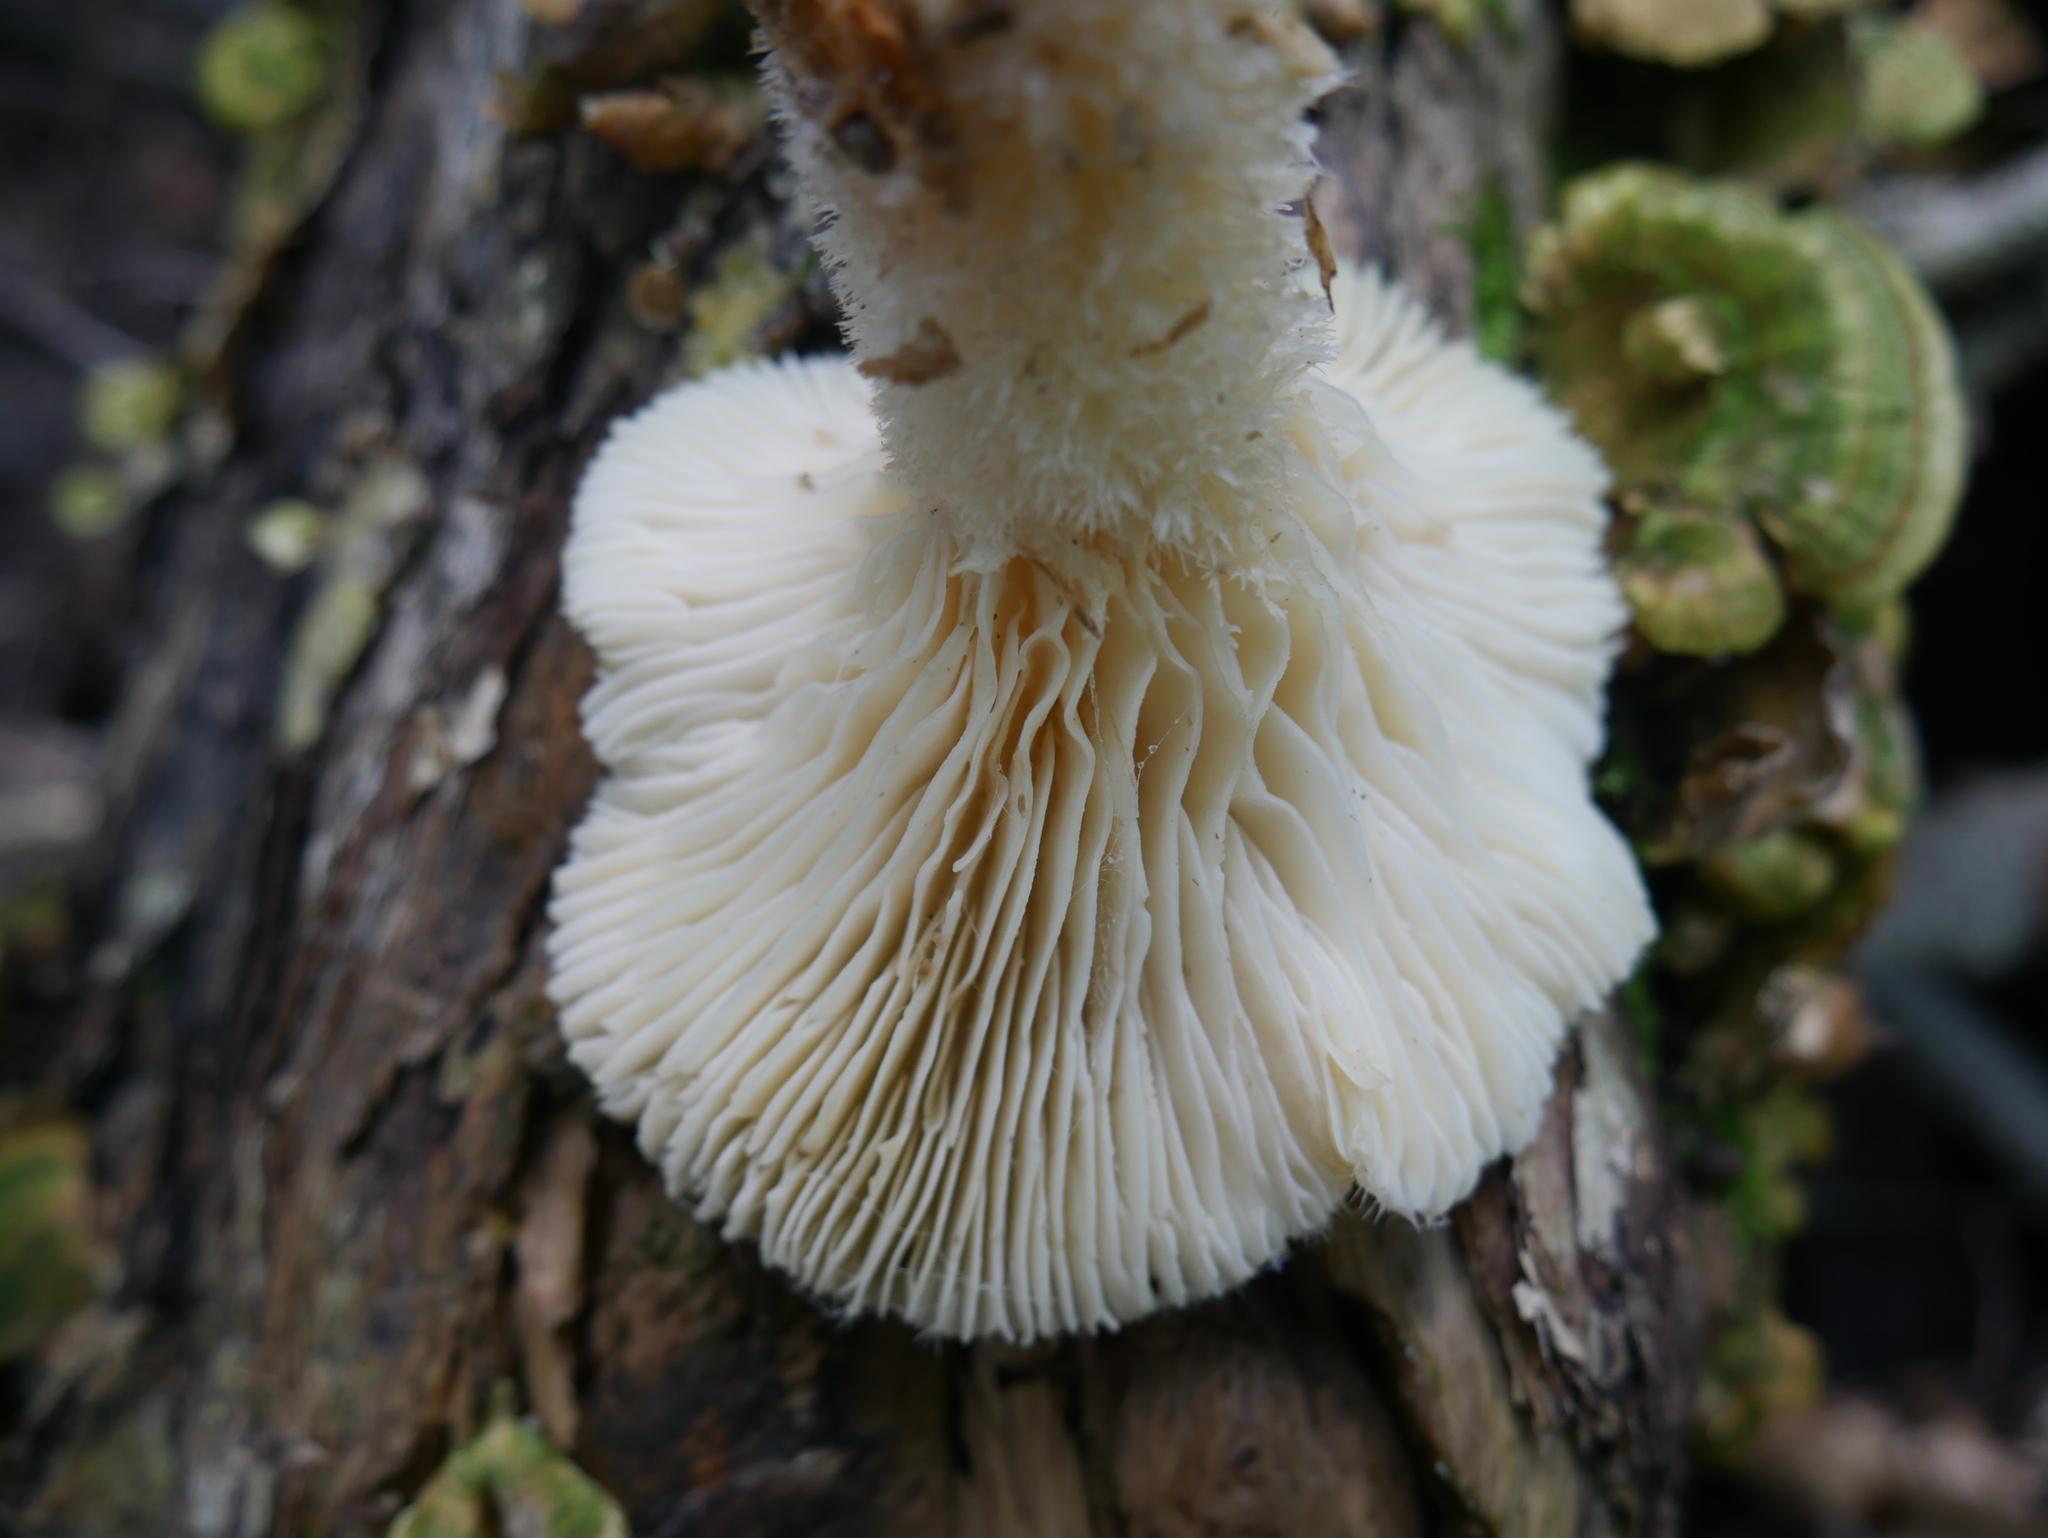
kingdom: Fungi
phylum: Basidiomycota
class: Agaricomycetes
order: Polyporales
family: Polyporaceae
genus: Lentinus
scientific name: Lentinus levis
